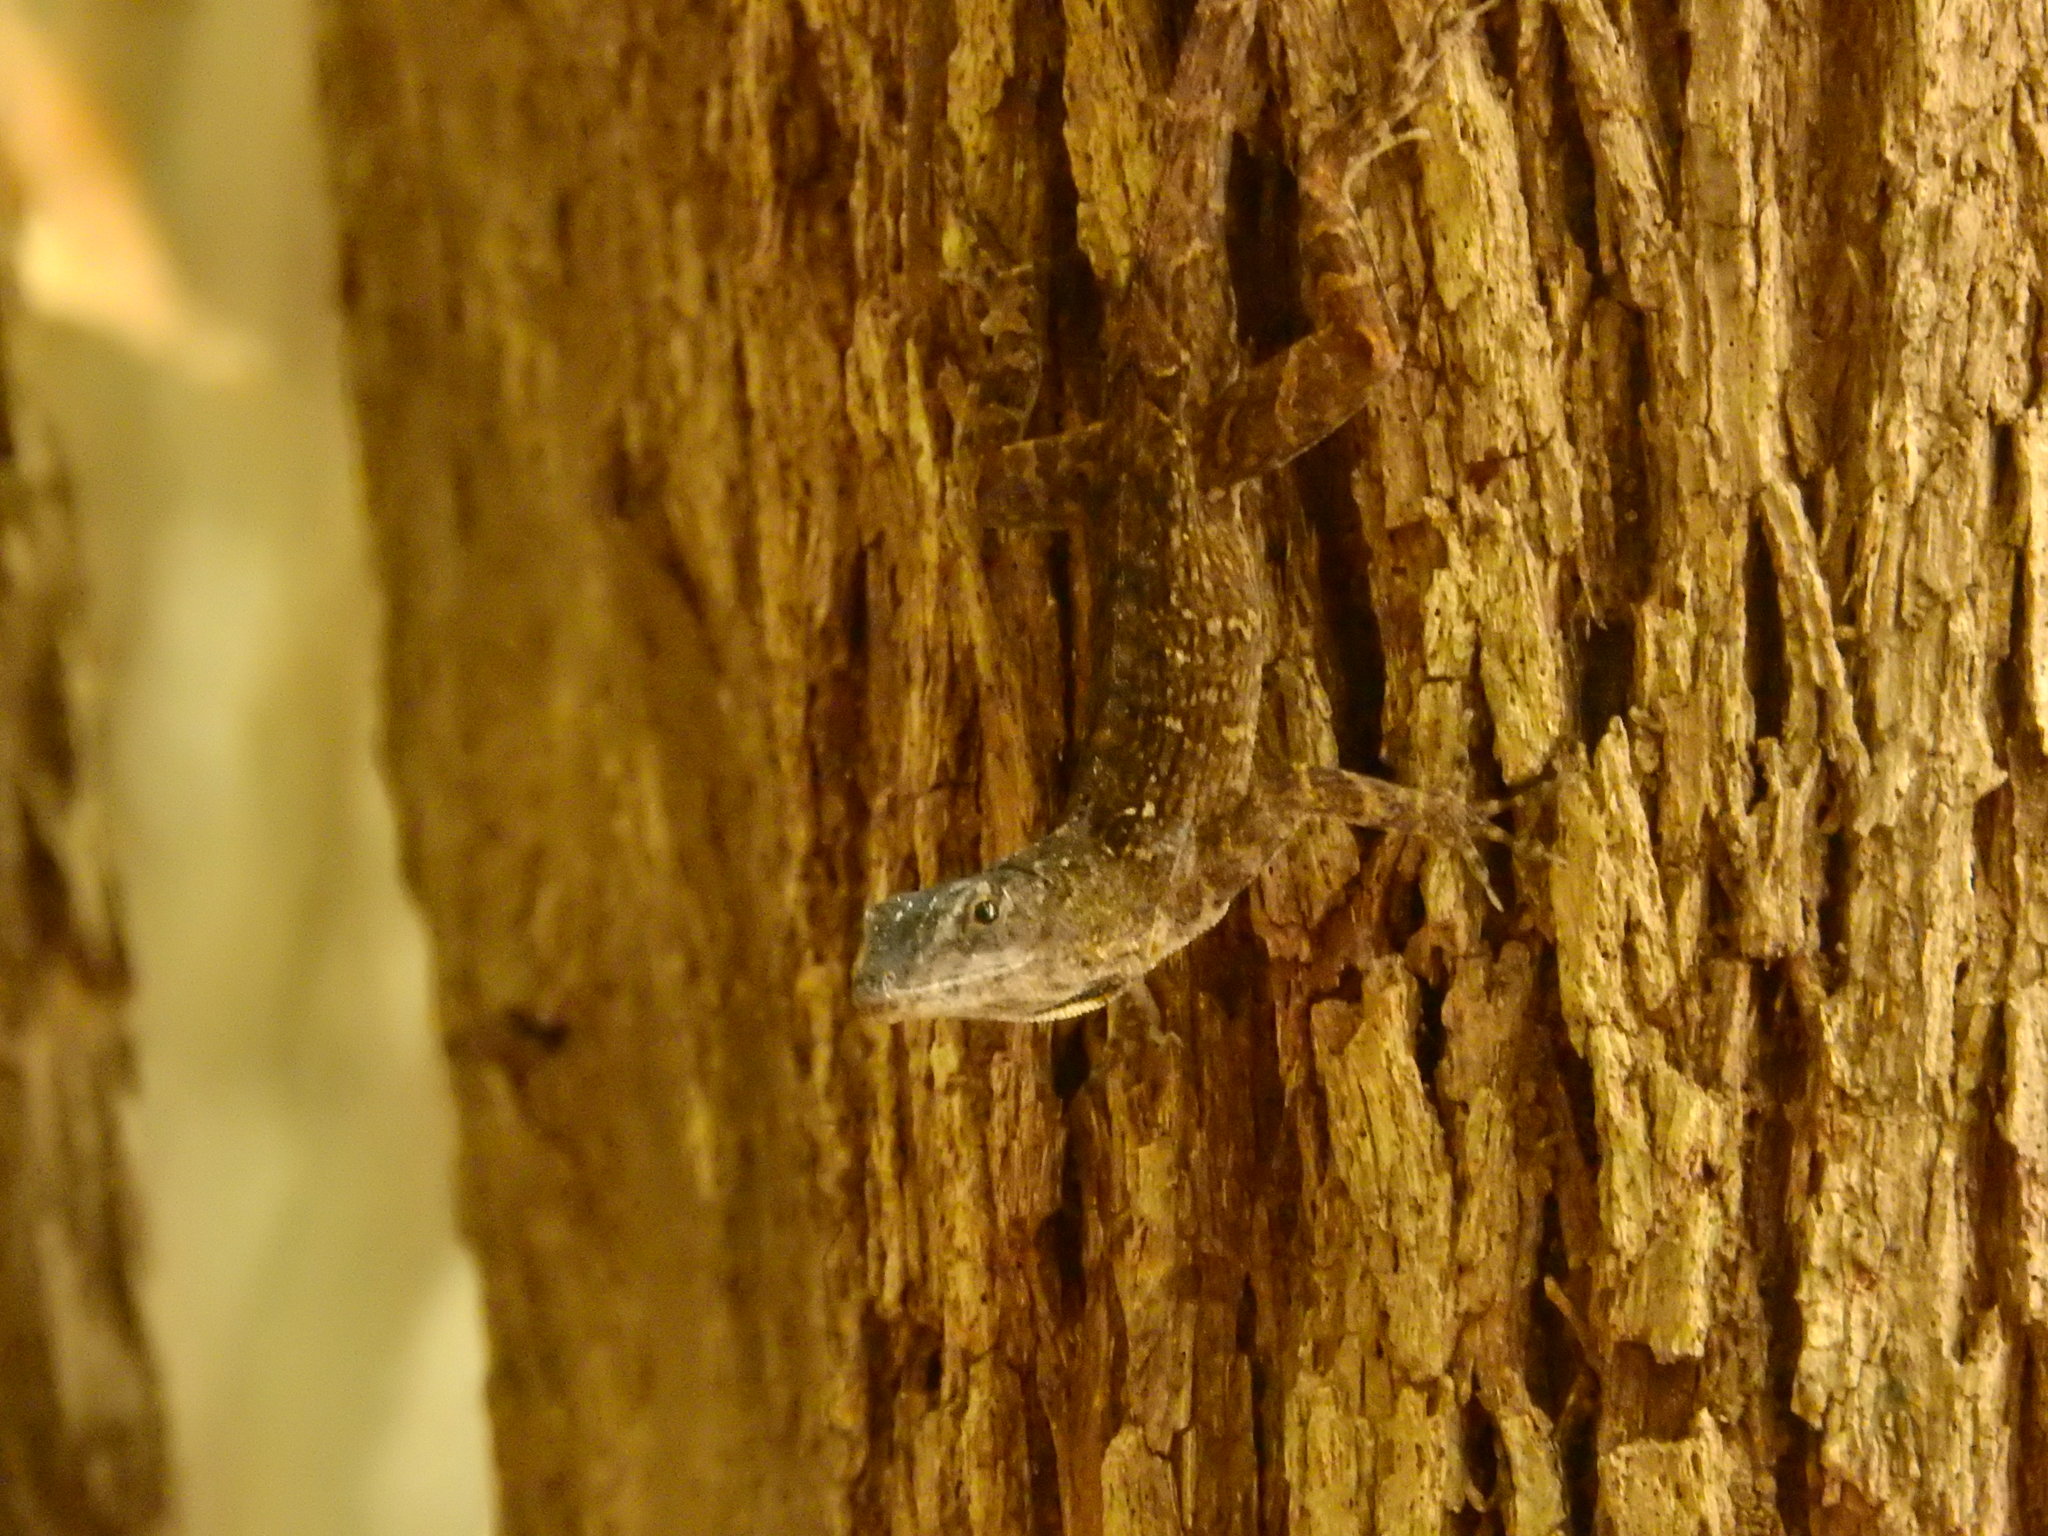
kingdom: Animalia
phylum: Chordata
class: Squamata
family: Dactyloidae
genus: Anolis
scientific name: Anolis sagrei
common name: Brown anole
